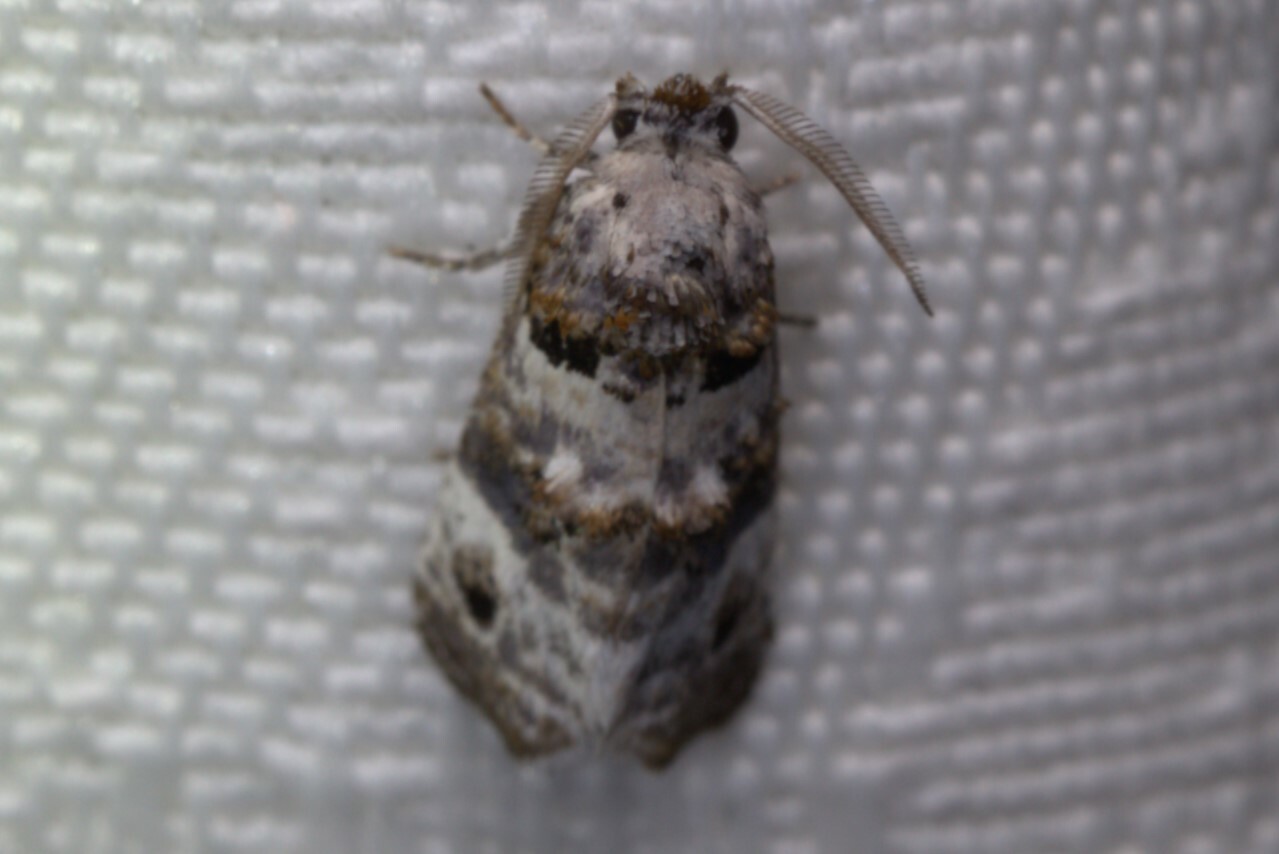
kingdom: Animalia
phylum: Arthropoda
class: Insecta
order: Lepidoptera
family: Cossidae
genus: Charmoses
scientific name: Charmoses dumigani
